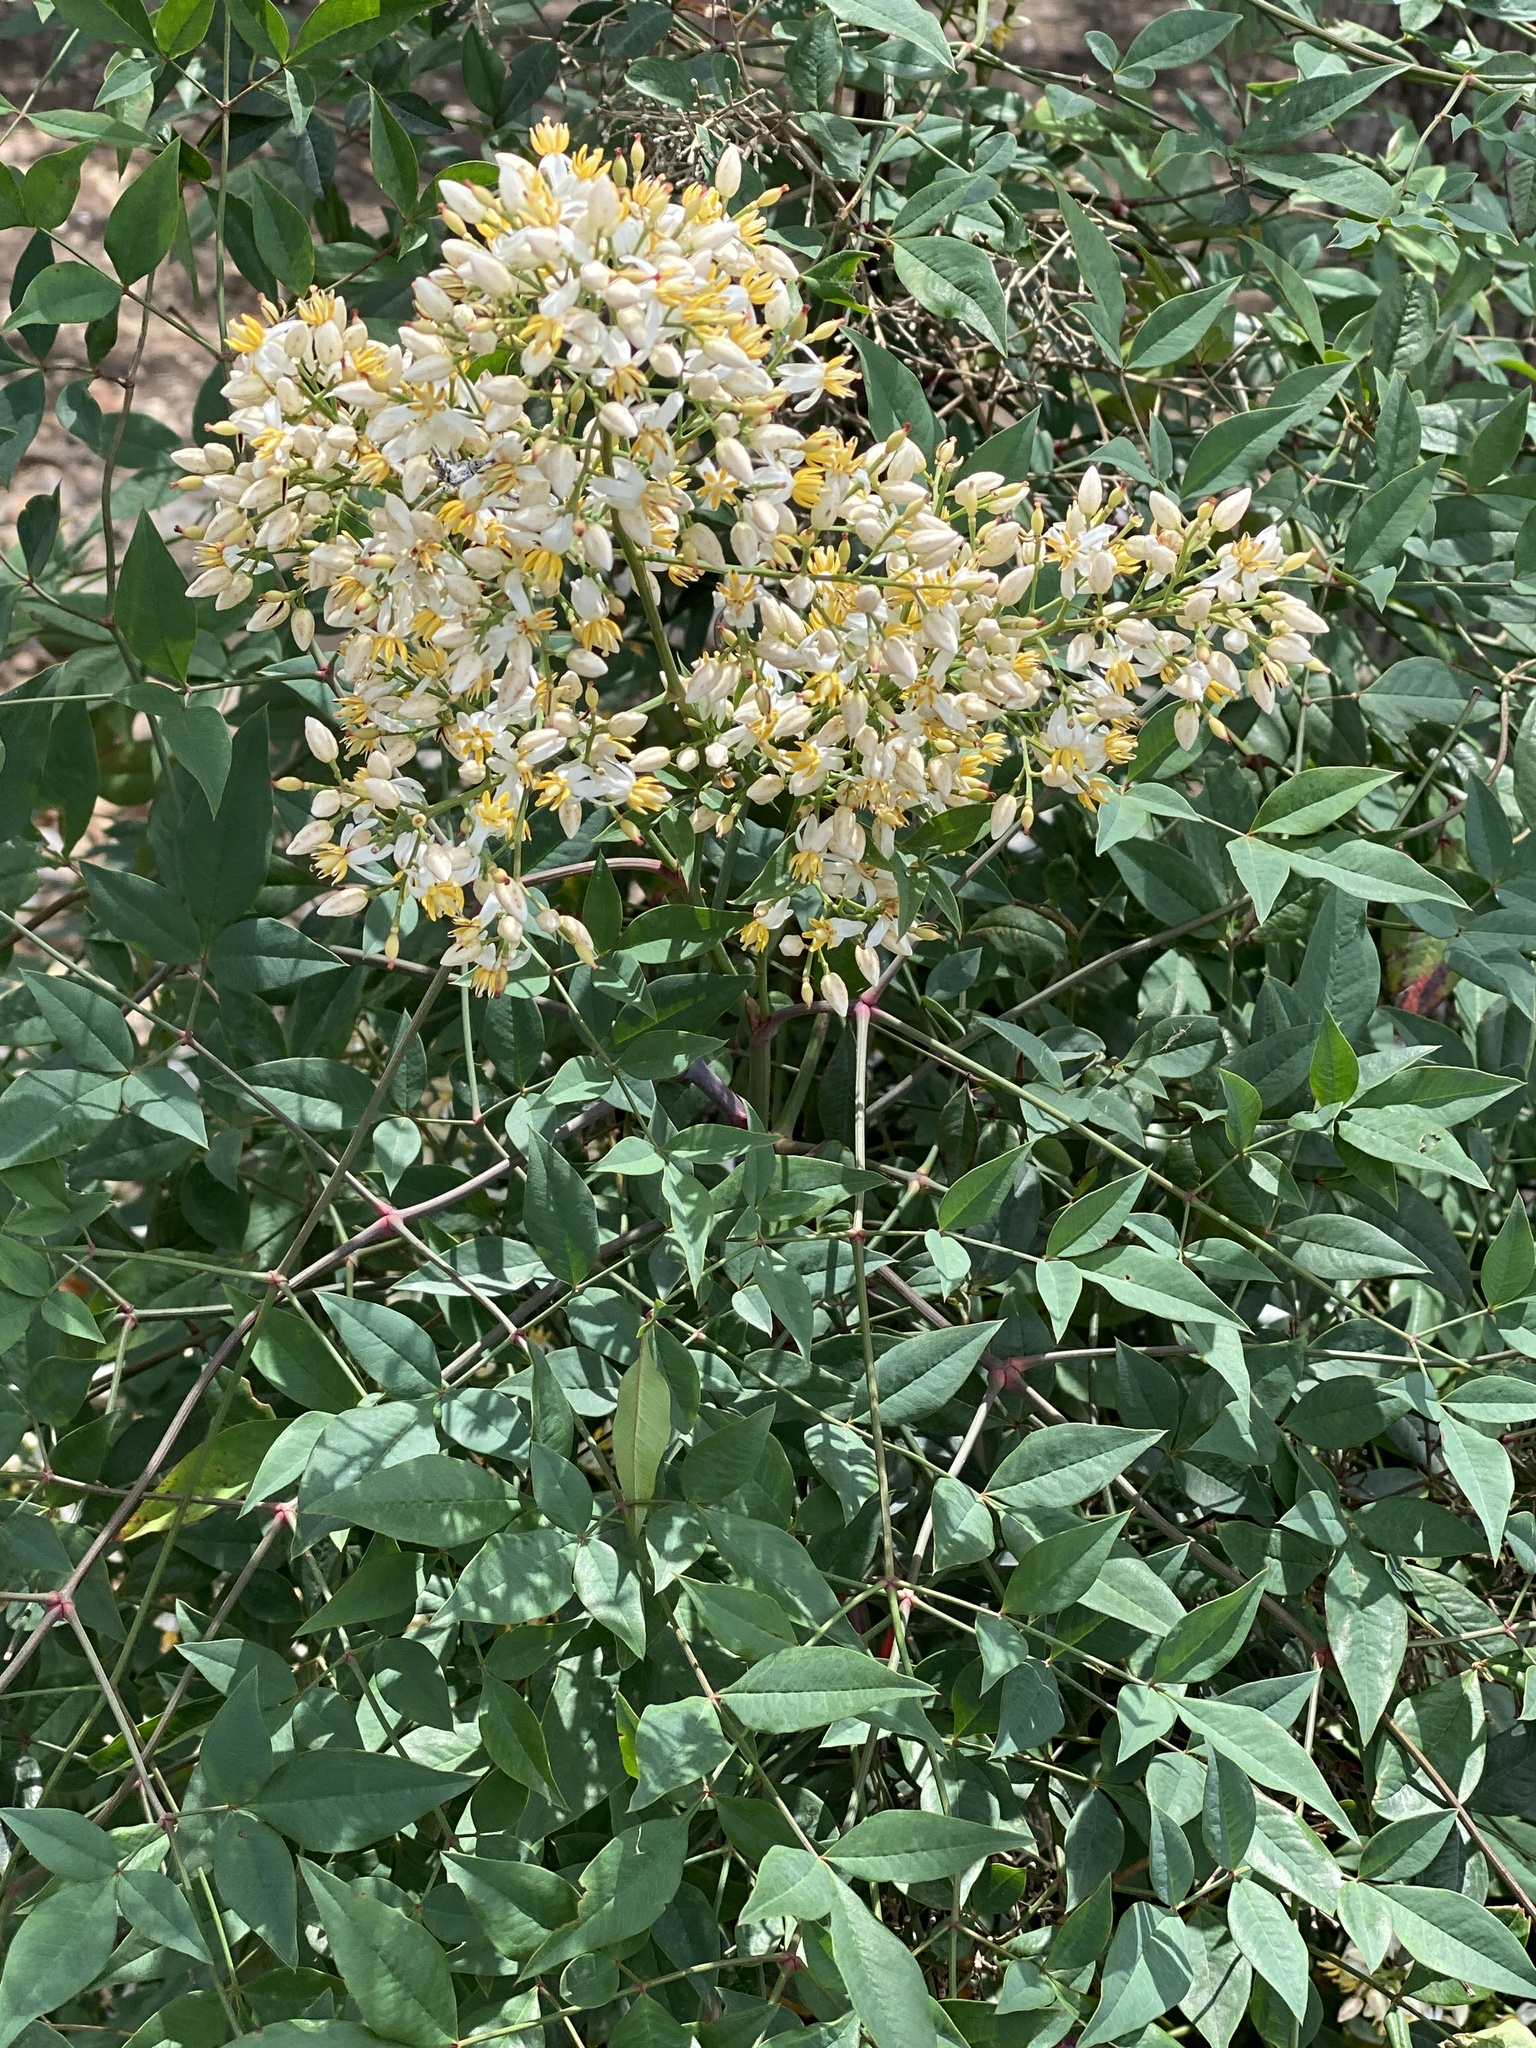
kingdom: Plantae
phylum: Tracheophyta
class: Magnoliopsida
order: Ranunculales
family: Berberidaceae
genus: Nandina
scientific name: Nandina domestica
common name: Sacred bamboo
